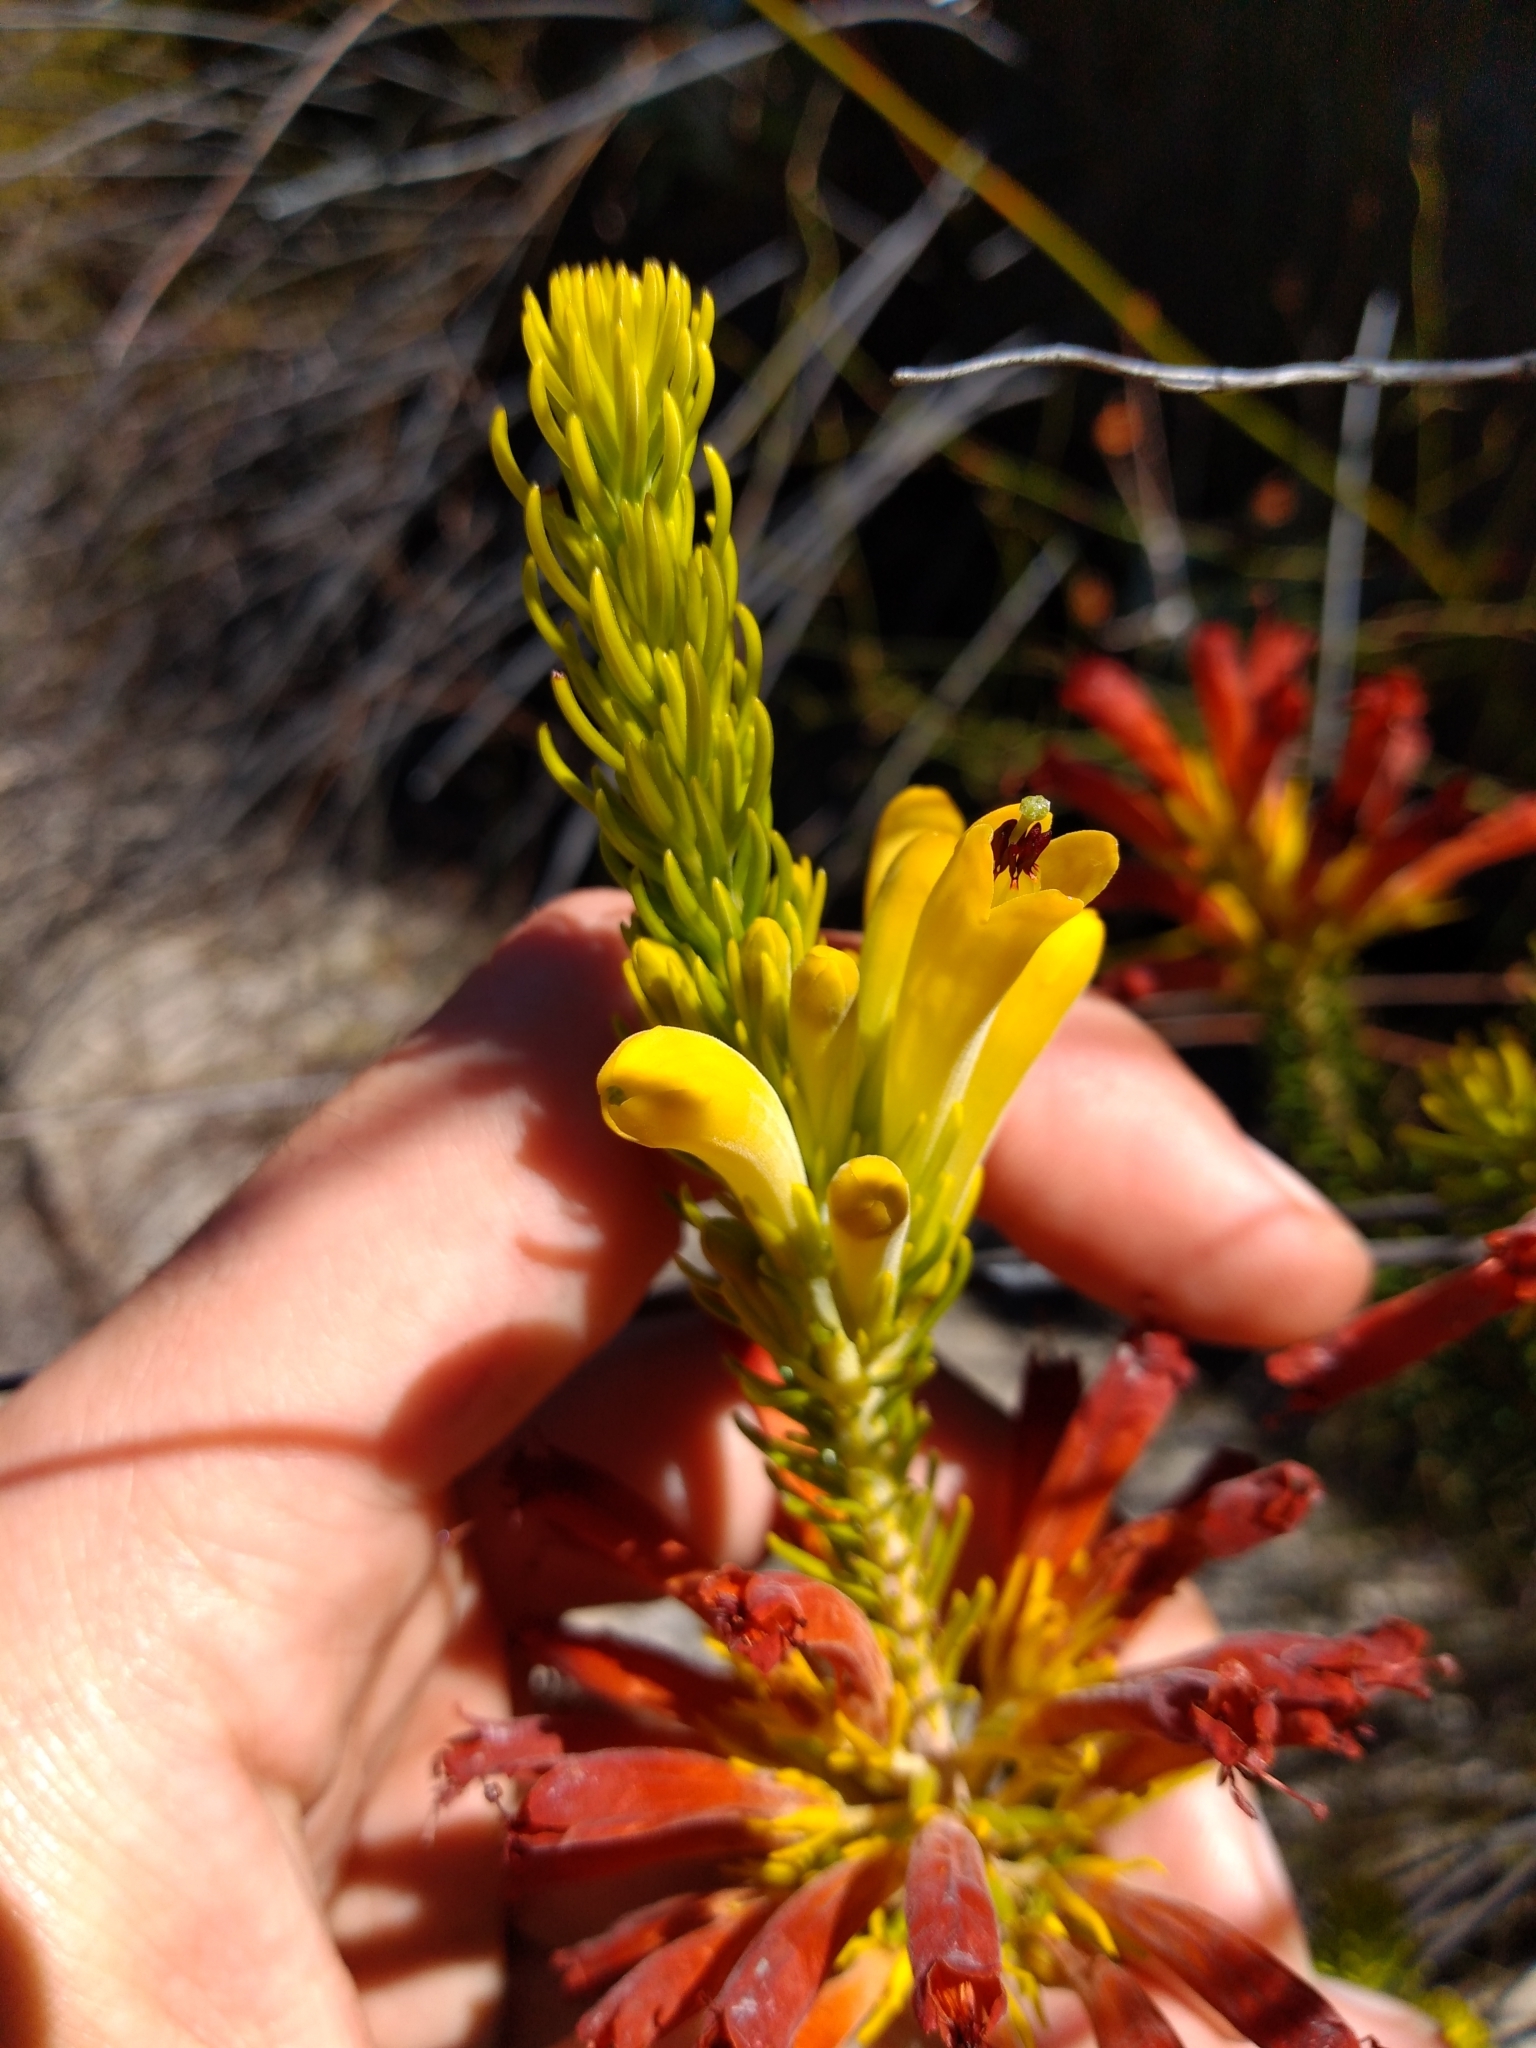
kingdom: Plantae
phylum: Tracheophyta
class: Magnoliopsida
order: Ericales
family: Ericaceae
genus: Erica
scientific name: Erica situshiemalis
